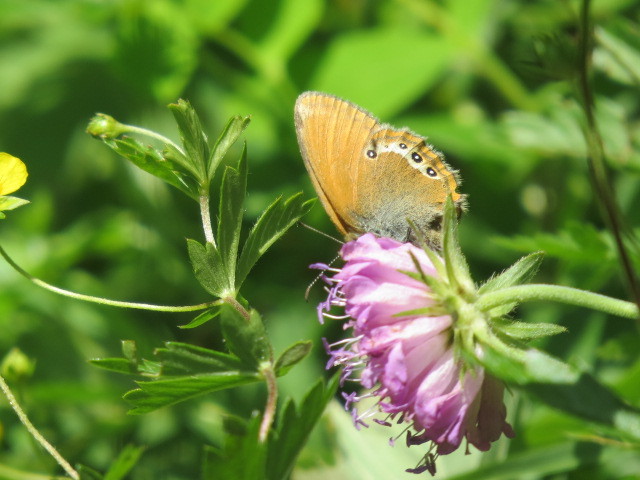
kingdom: Animalia
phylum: Arthropoda
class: Insecta
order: Lepidoptera
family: Nymphalidae
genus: Coenonympha
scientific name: Coenonympha
